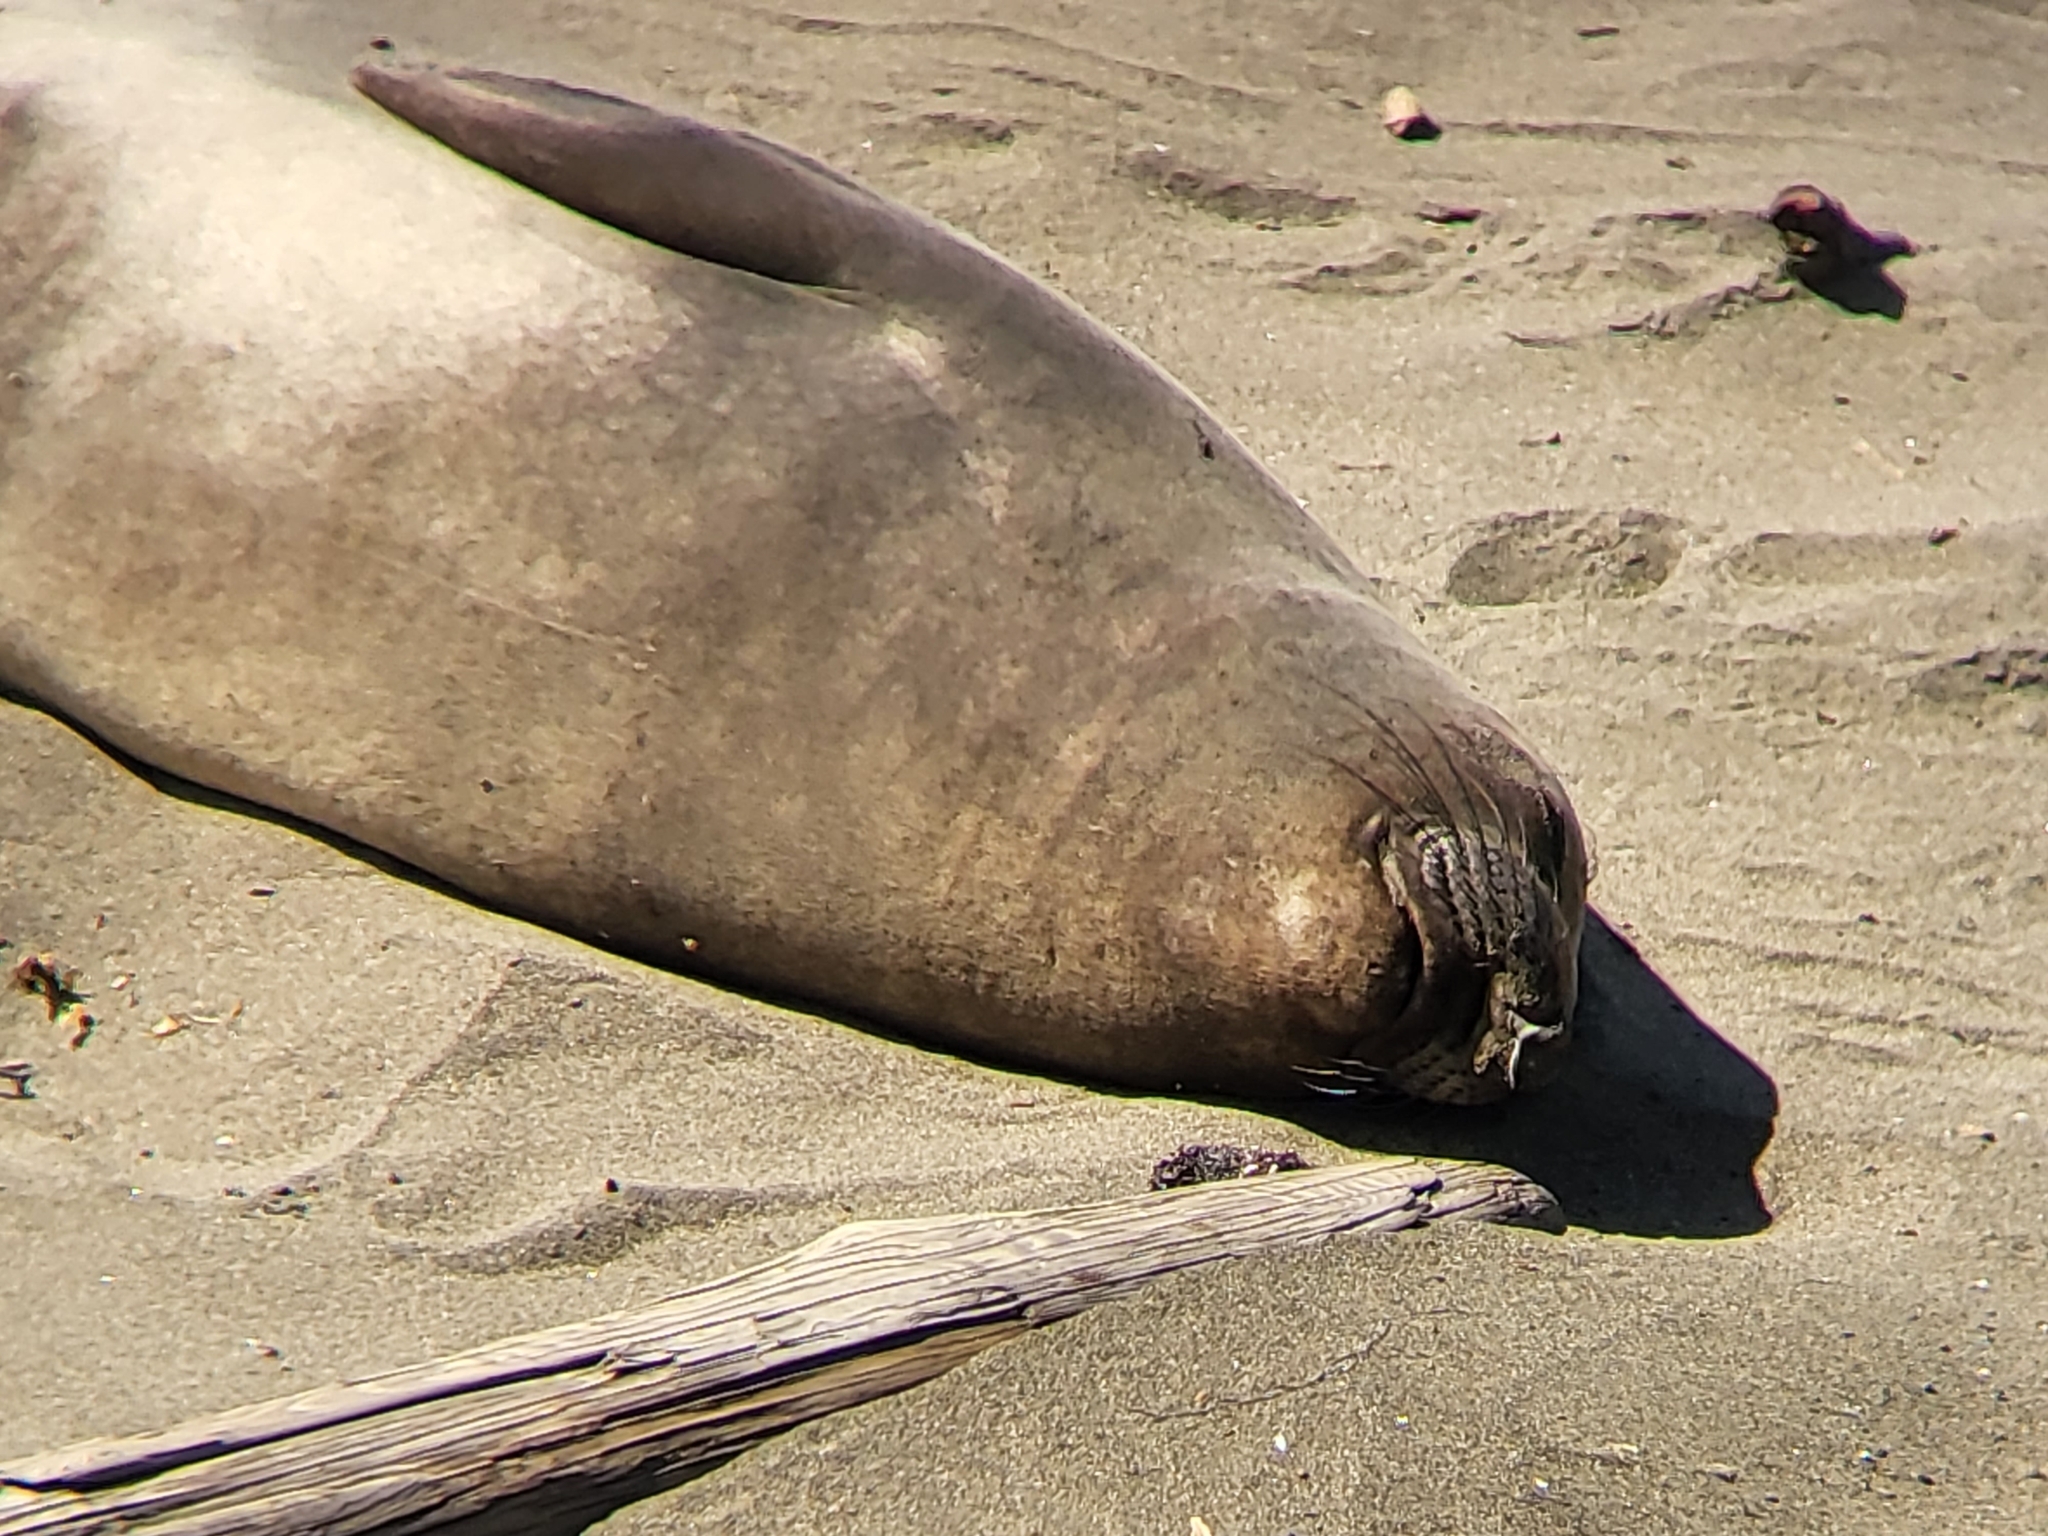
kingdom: Animalia
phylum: Chordata
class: Mammalia
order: Carnivora
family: Phocidae
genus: Mirounga
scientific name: Mirounga angustirostris
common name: Northern elephant seal
